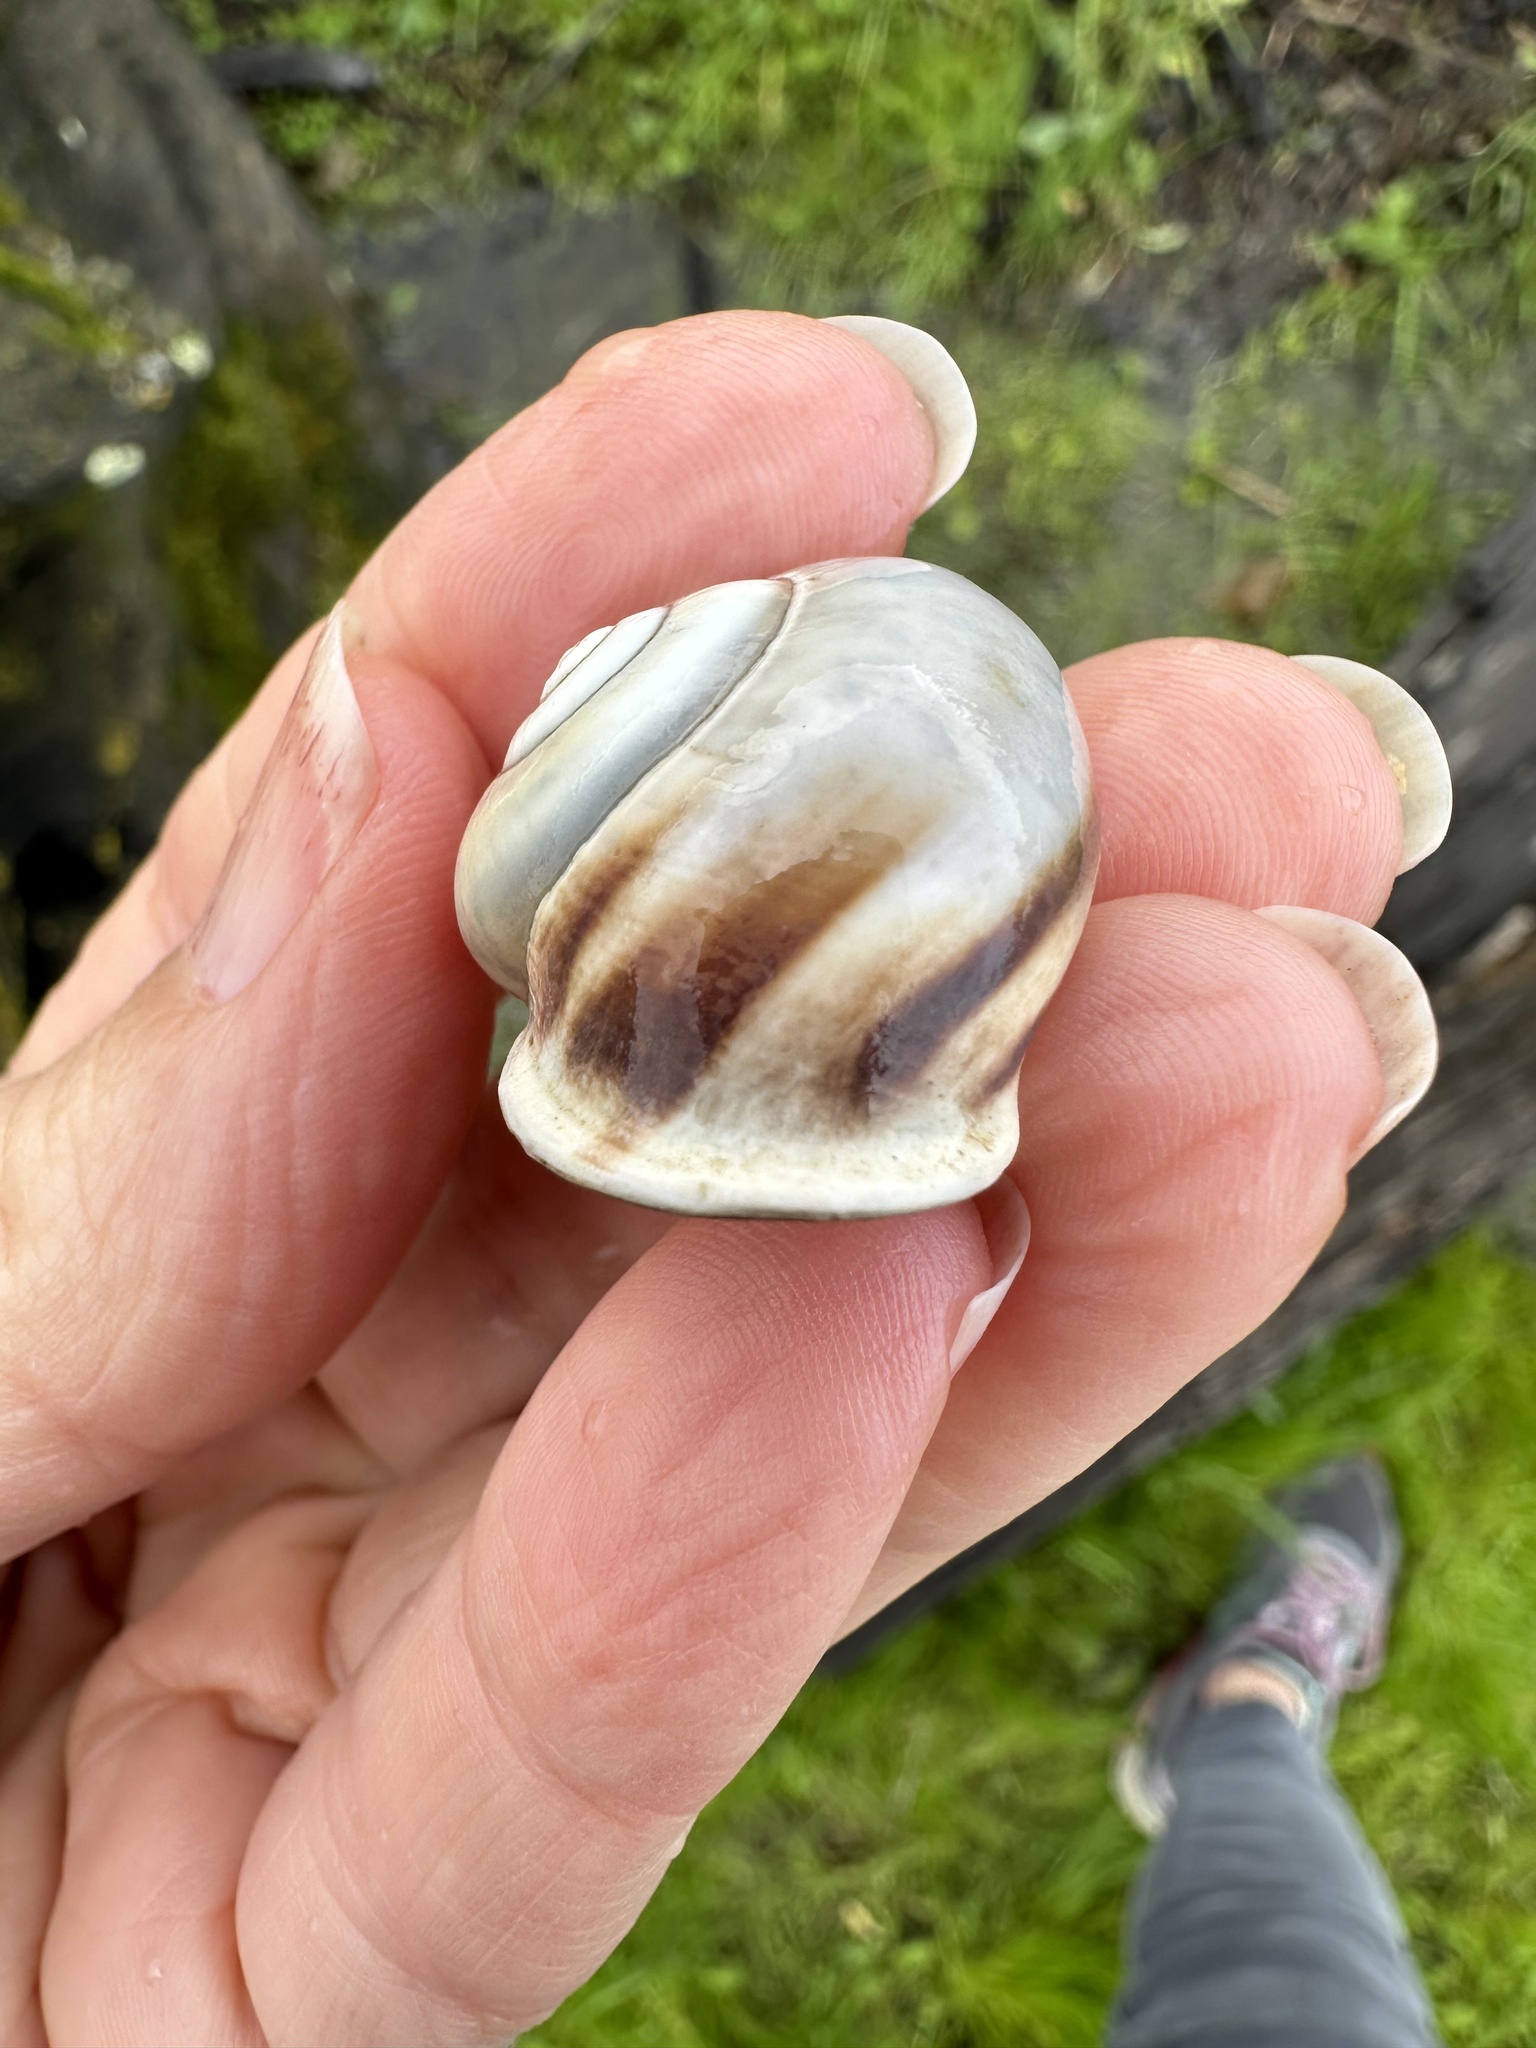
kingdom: Animalia
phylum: Mollusca
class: Gastropoda
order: Stylommatophora
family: Helicidae
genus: Otala
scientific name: Otala lactea
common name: Milk snail
